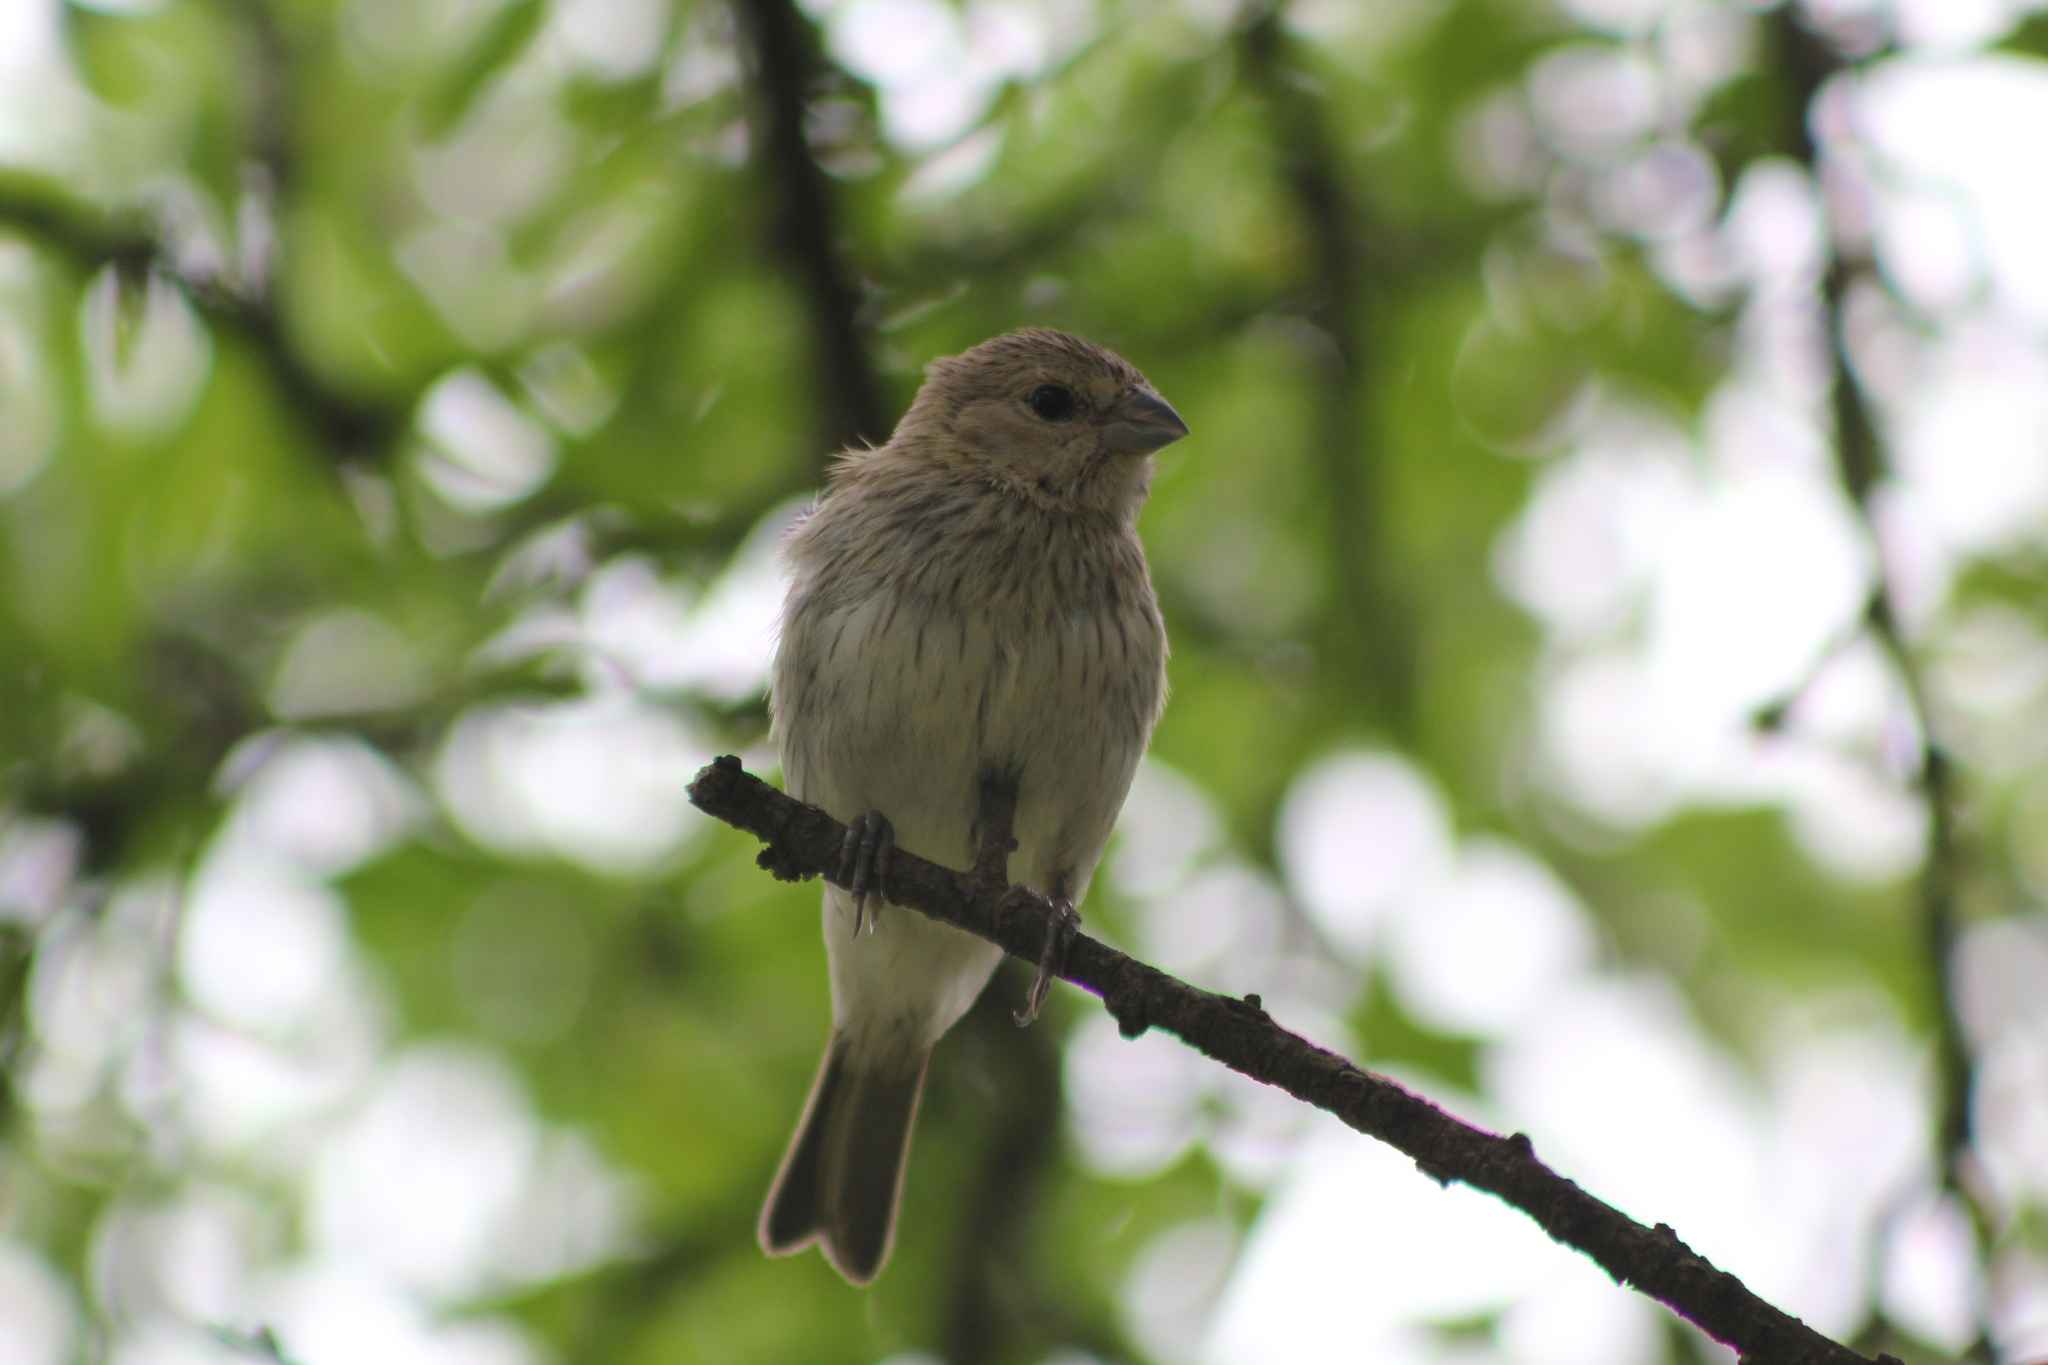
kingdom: Animalia
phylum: Chordata
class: Aves
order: Passeriformes
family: Thraupidae
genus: Sicalis
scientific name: Sicalis flaveola
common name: Saffron finch
